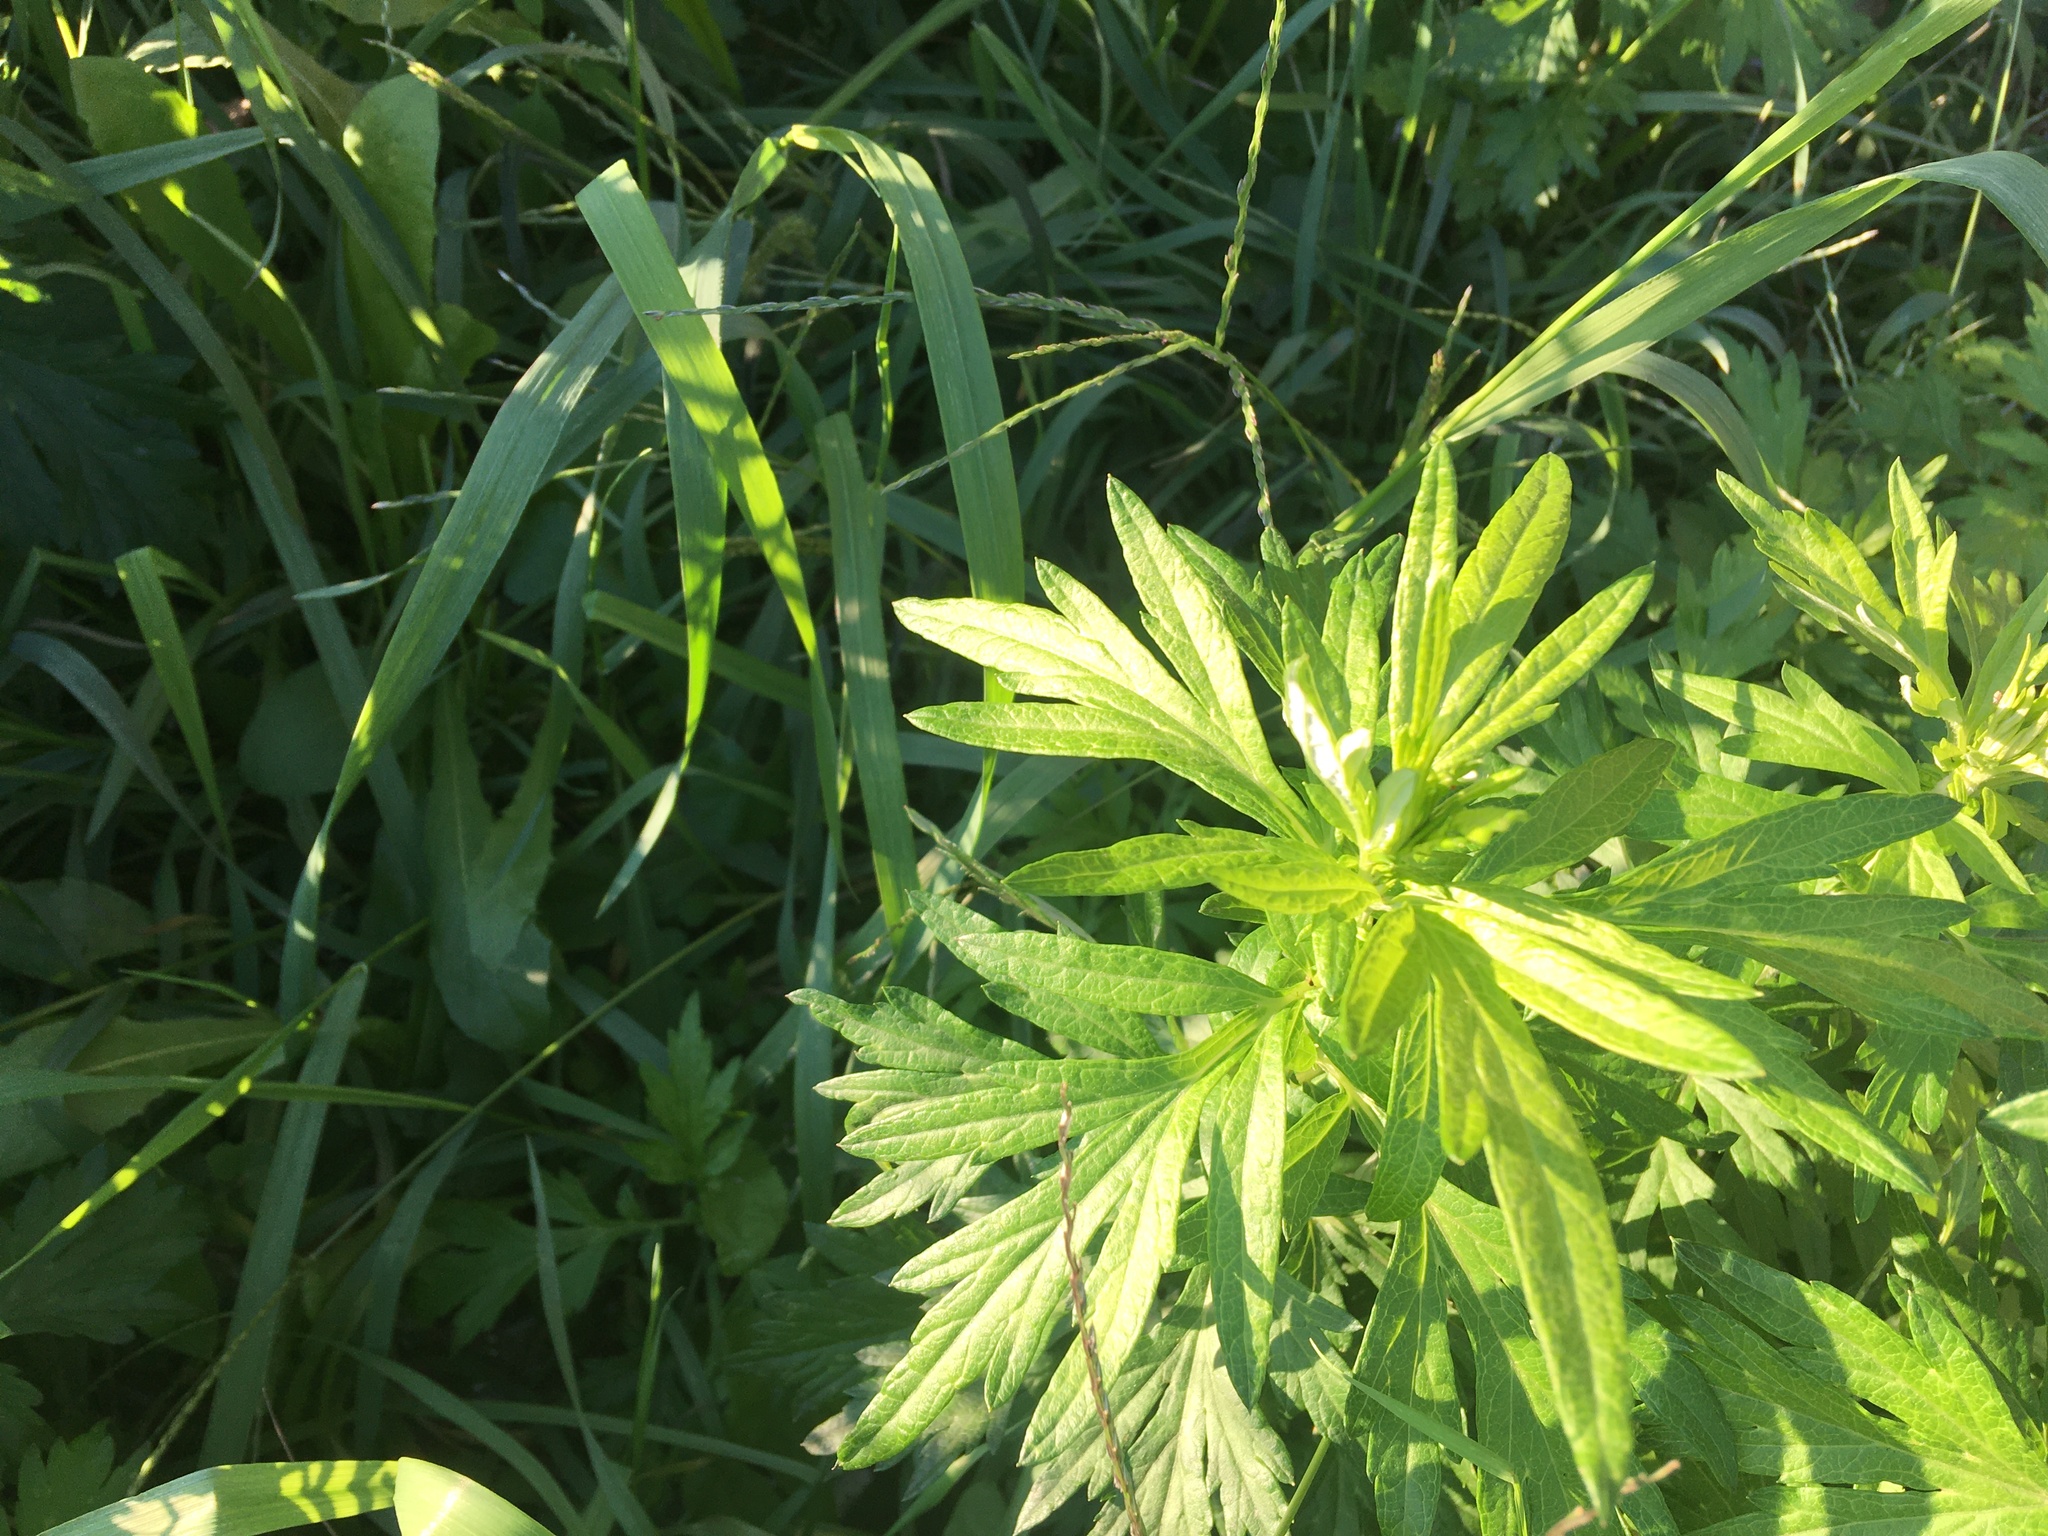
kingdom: Plantae
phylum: Tracheophyta
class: Magnoliopsida
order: Asterales
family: Asteraceae
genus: Artemisia
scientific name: Artemisia vulgaris
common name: Mugwort
